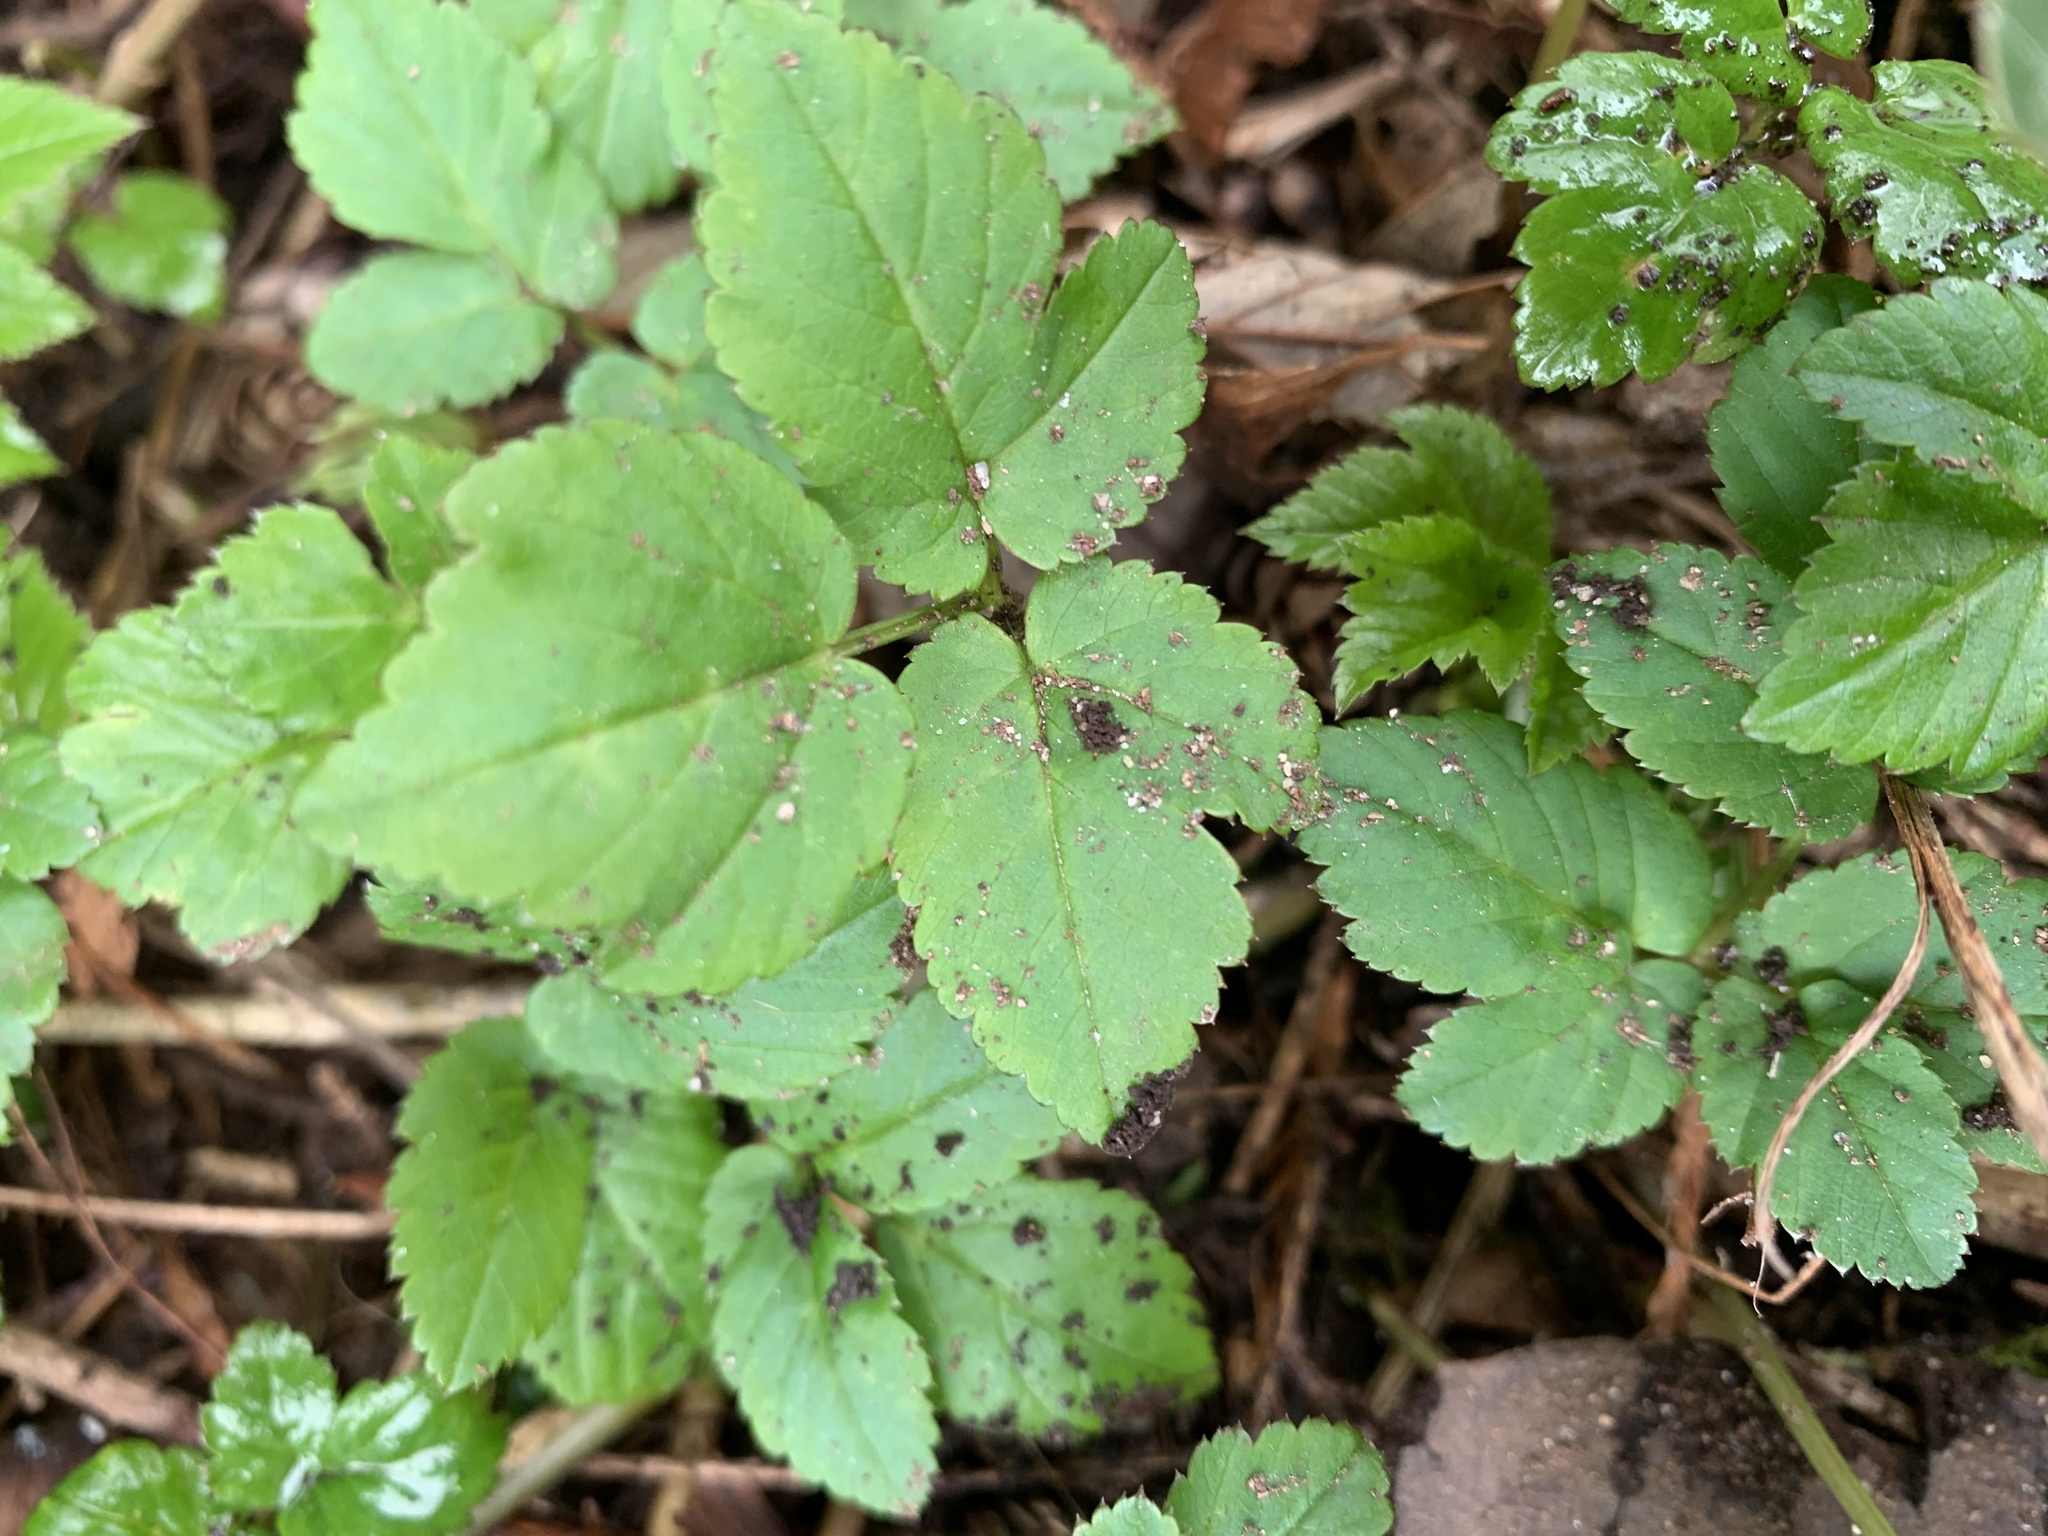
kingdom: Plantae
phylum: Tracheophyta
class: Magnoliopsida
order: Apiales
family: Apiaceae
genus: Aegopodium
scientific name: Aegopodium podagraria
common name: Ground-elder
